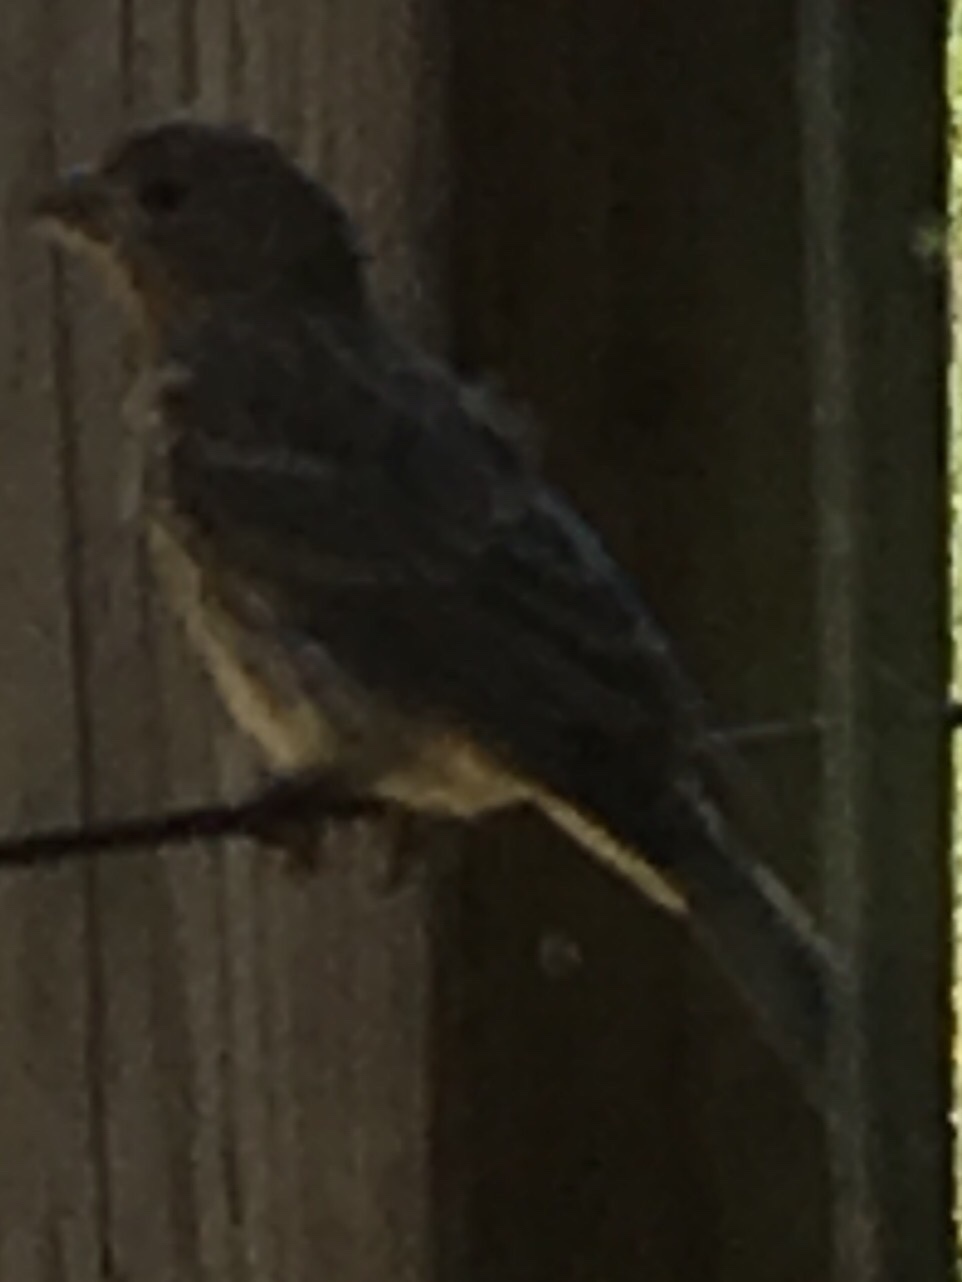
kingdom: Animalia
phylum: Chordata
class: Aves
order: Passeriformes
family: Fringillidae
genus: Haemorhous
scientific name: Haemorhous mexicanus
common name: House finch
